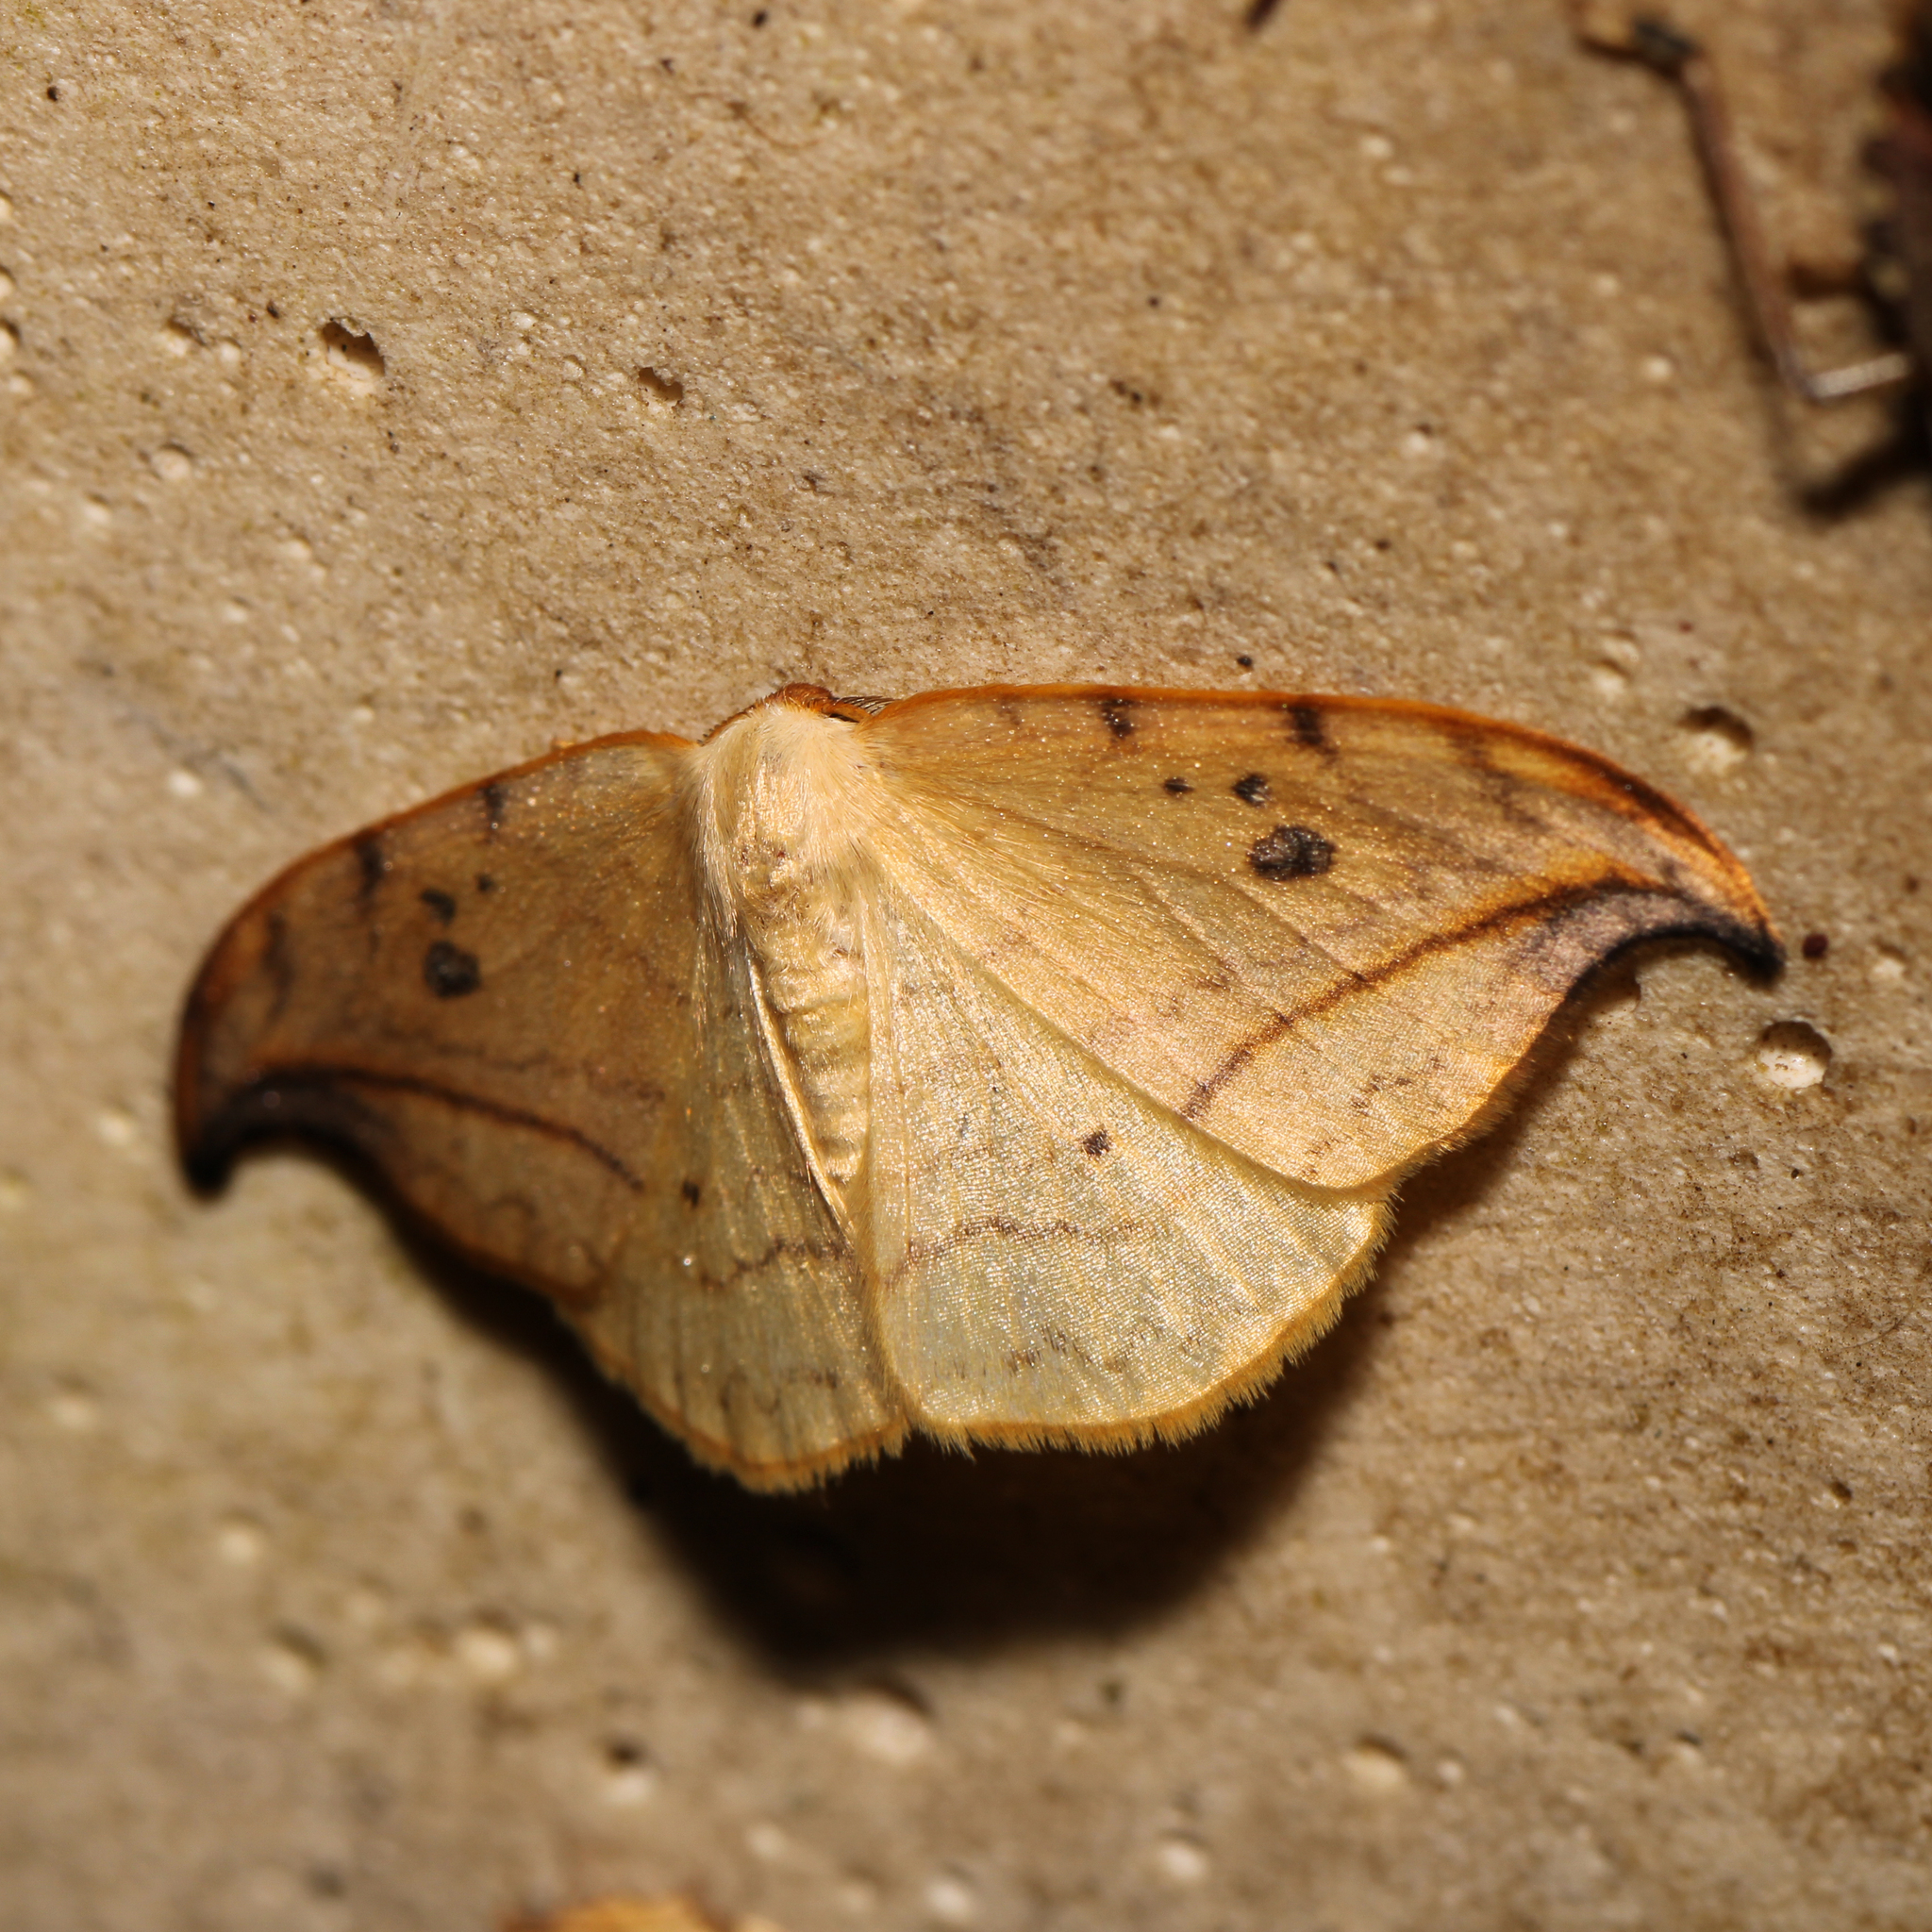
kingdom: Animalia
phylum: Arthropoda
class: Insecta
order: Lepidoptera
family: Drepanidae
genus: Drepana
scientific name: Drepana arcuata
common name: Arched hooktip moth
